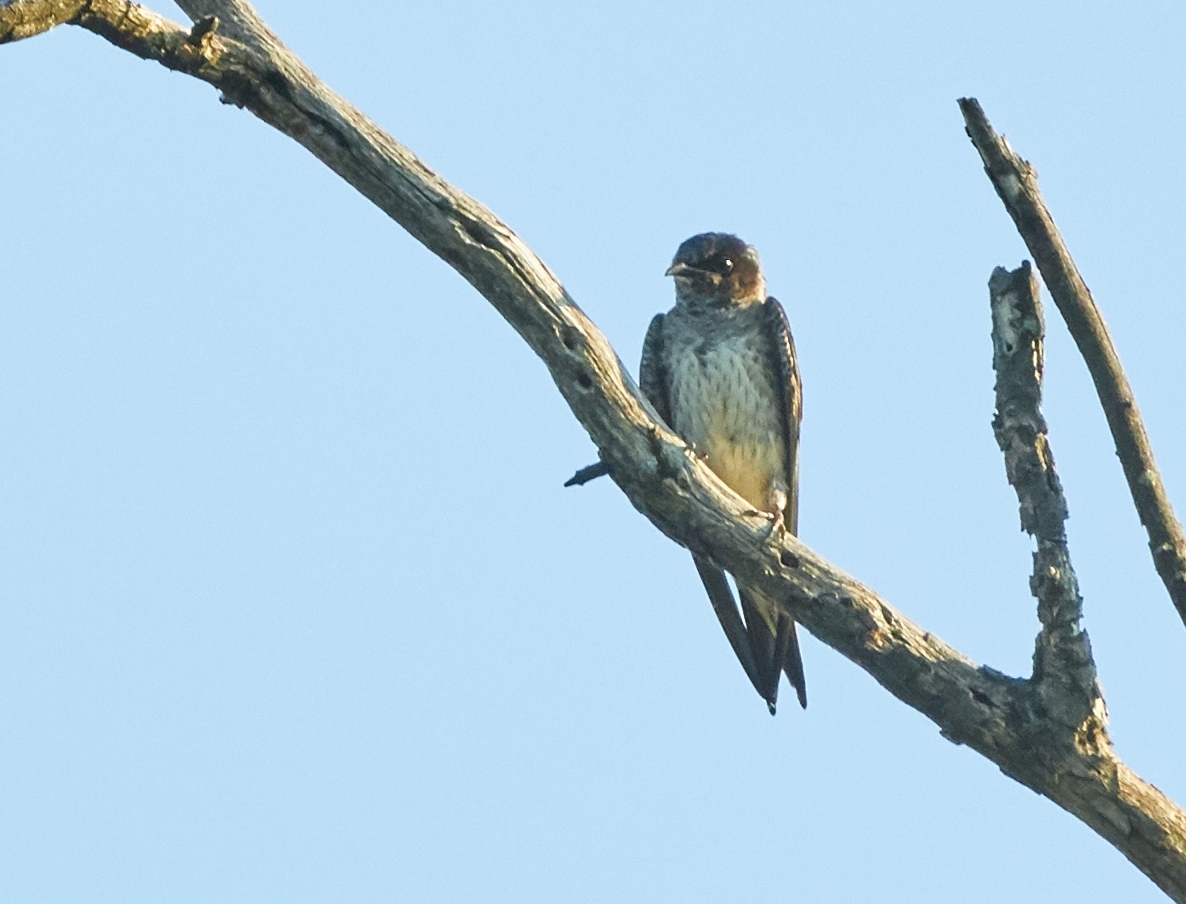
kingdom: Animalia
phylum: Chordata
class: Aves
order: Passeriformes
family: Hirundinidae
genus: Progne
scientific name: Progne subis
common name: Purple martin
